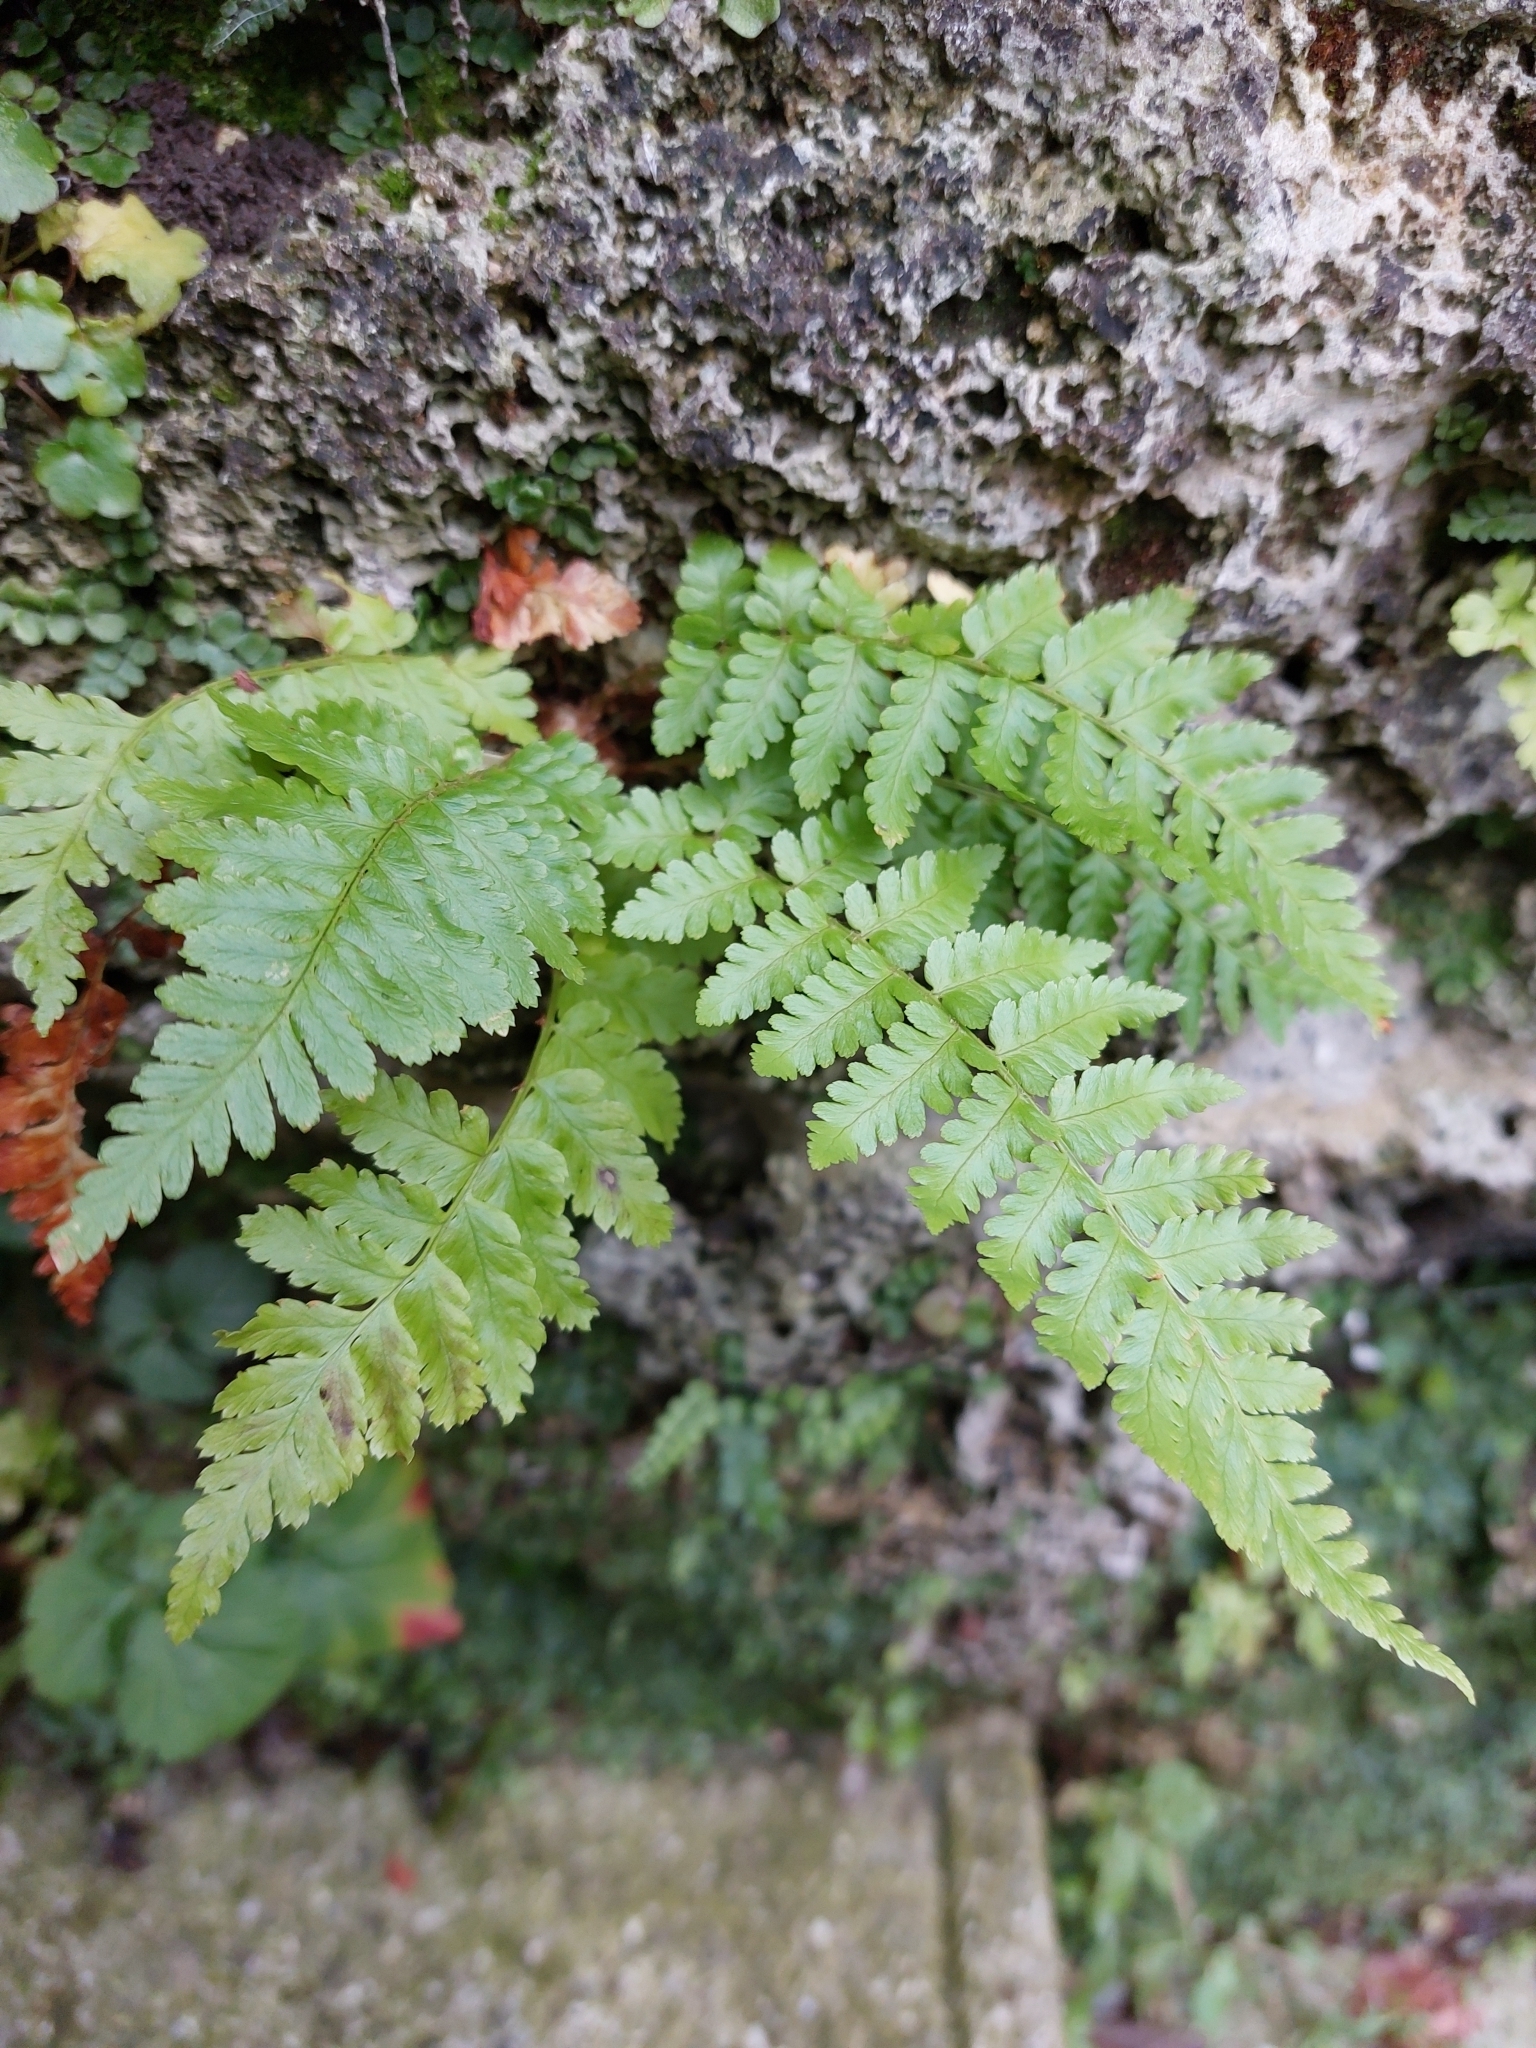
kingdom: Plantae
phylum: Tracheophyta
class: Polypodiopsida
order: Polypodiales
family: Dryopteridaceae
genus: Dryopteris
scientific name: Dryopteris filix-mas
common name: Male fern
